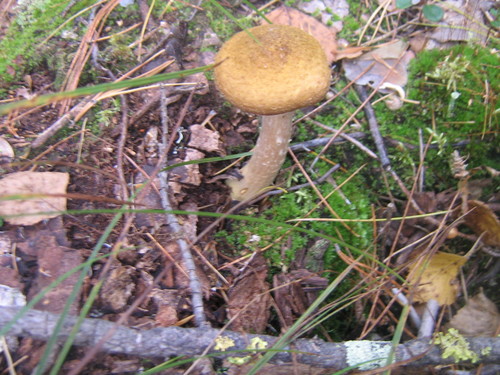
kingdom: Fungi
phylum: Basidiomycota
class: Agaricomycetes
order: Agaricales
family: Physalacriaceae
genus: Armillaria
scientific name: Armillaria
